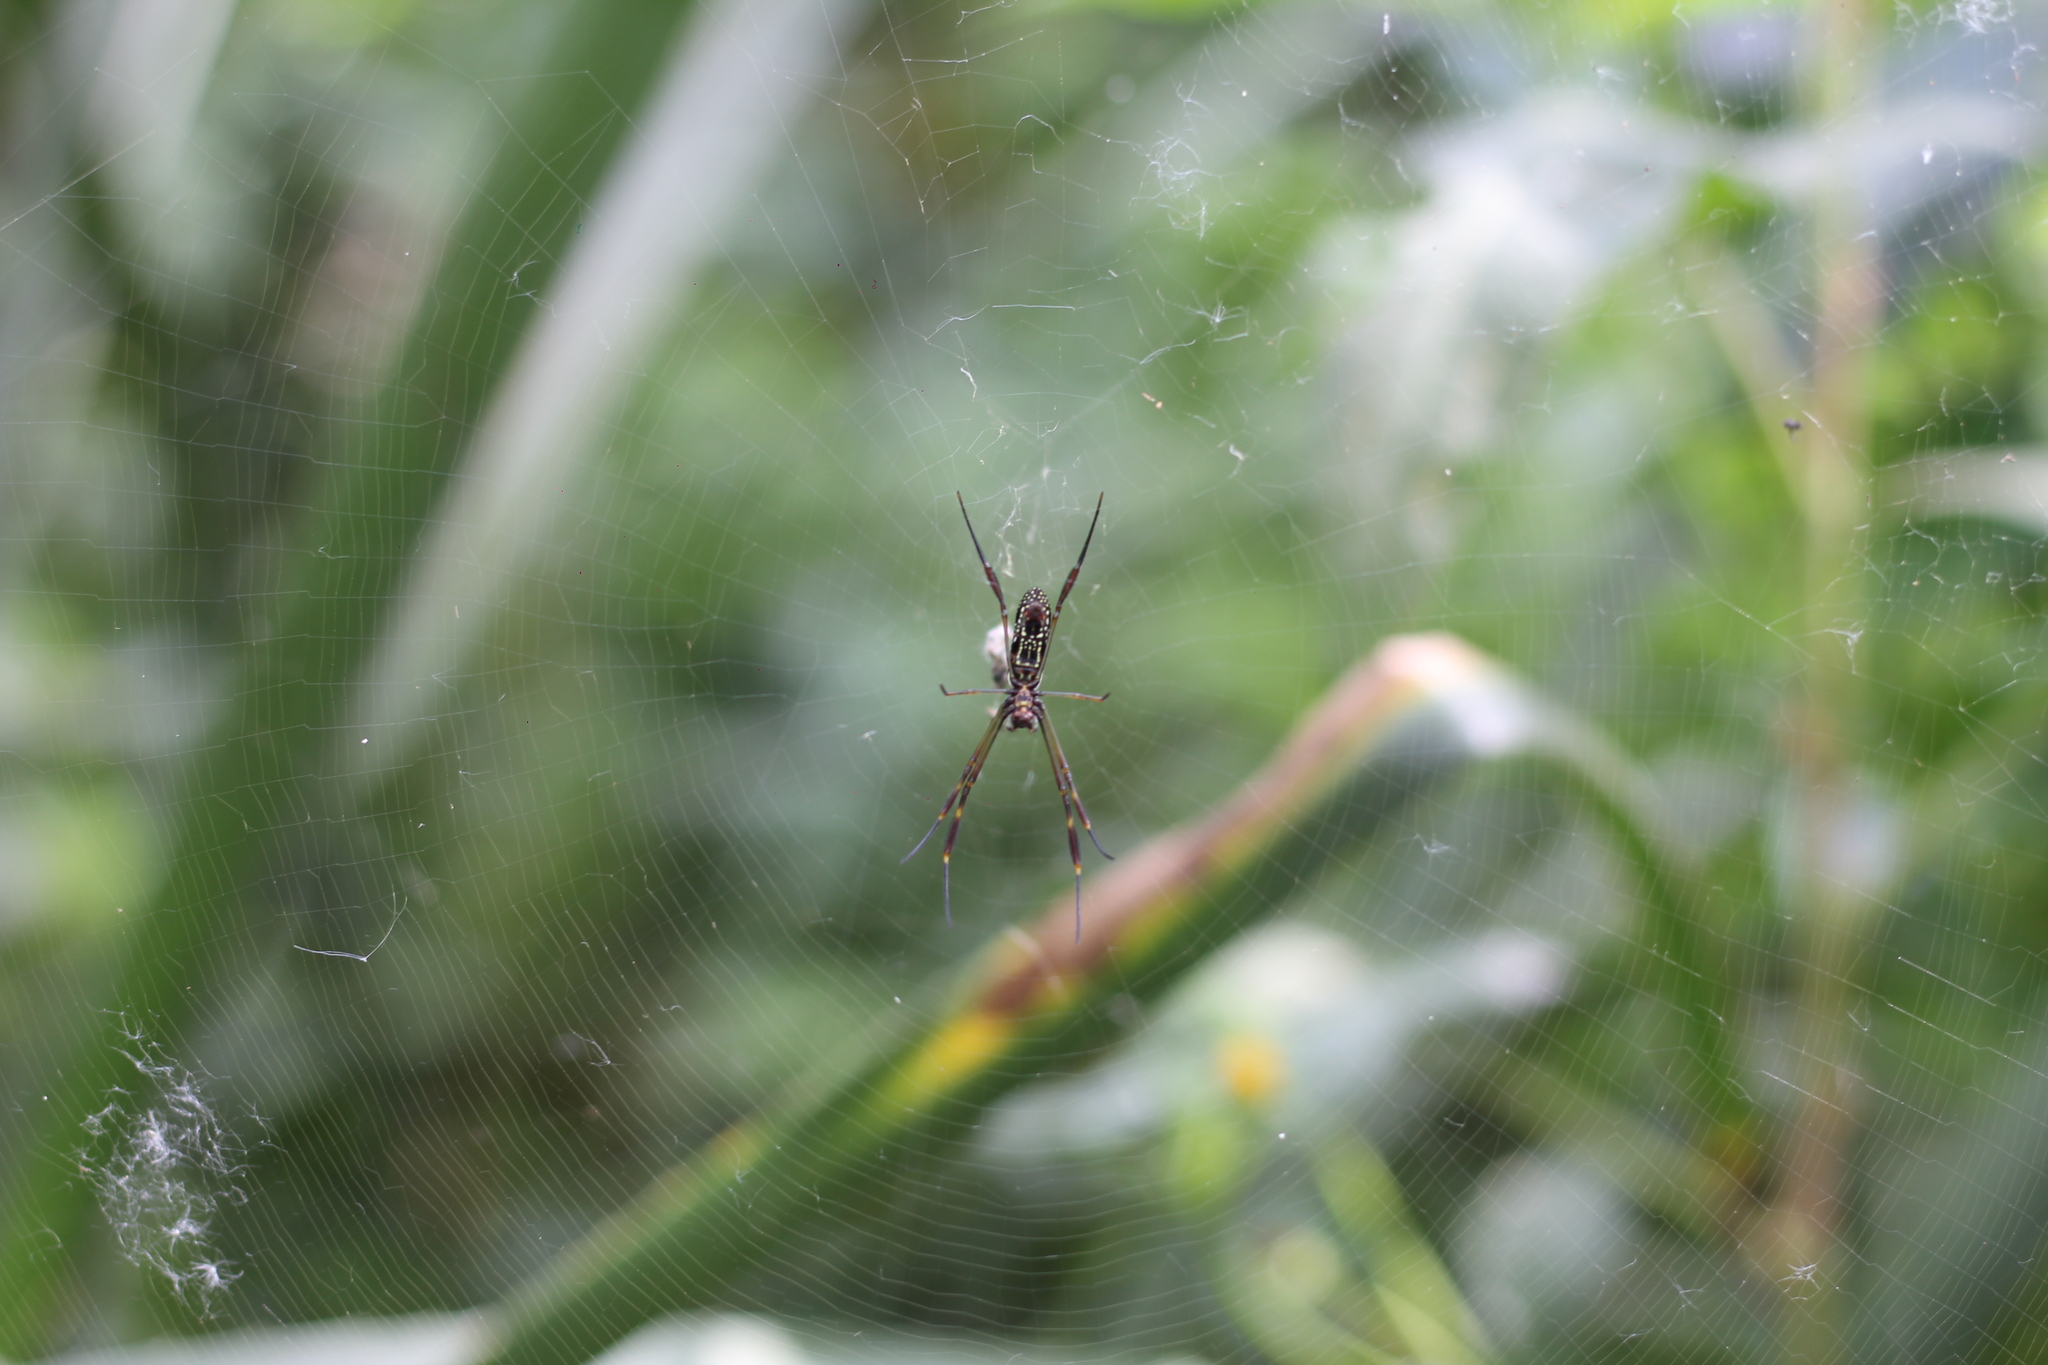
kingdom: Animalia
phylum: Arthropoda
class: Arachnida
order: Araneae
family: Araneidae
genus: Trichonephila
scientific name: Trichonephila clavipes
